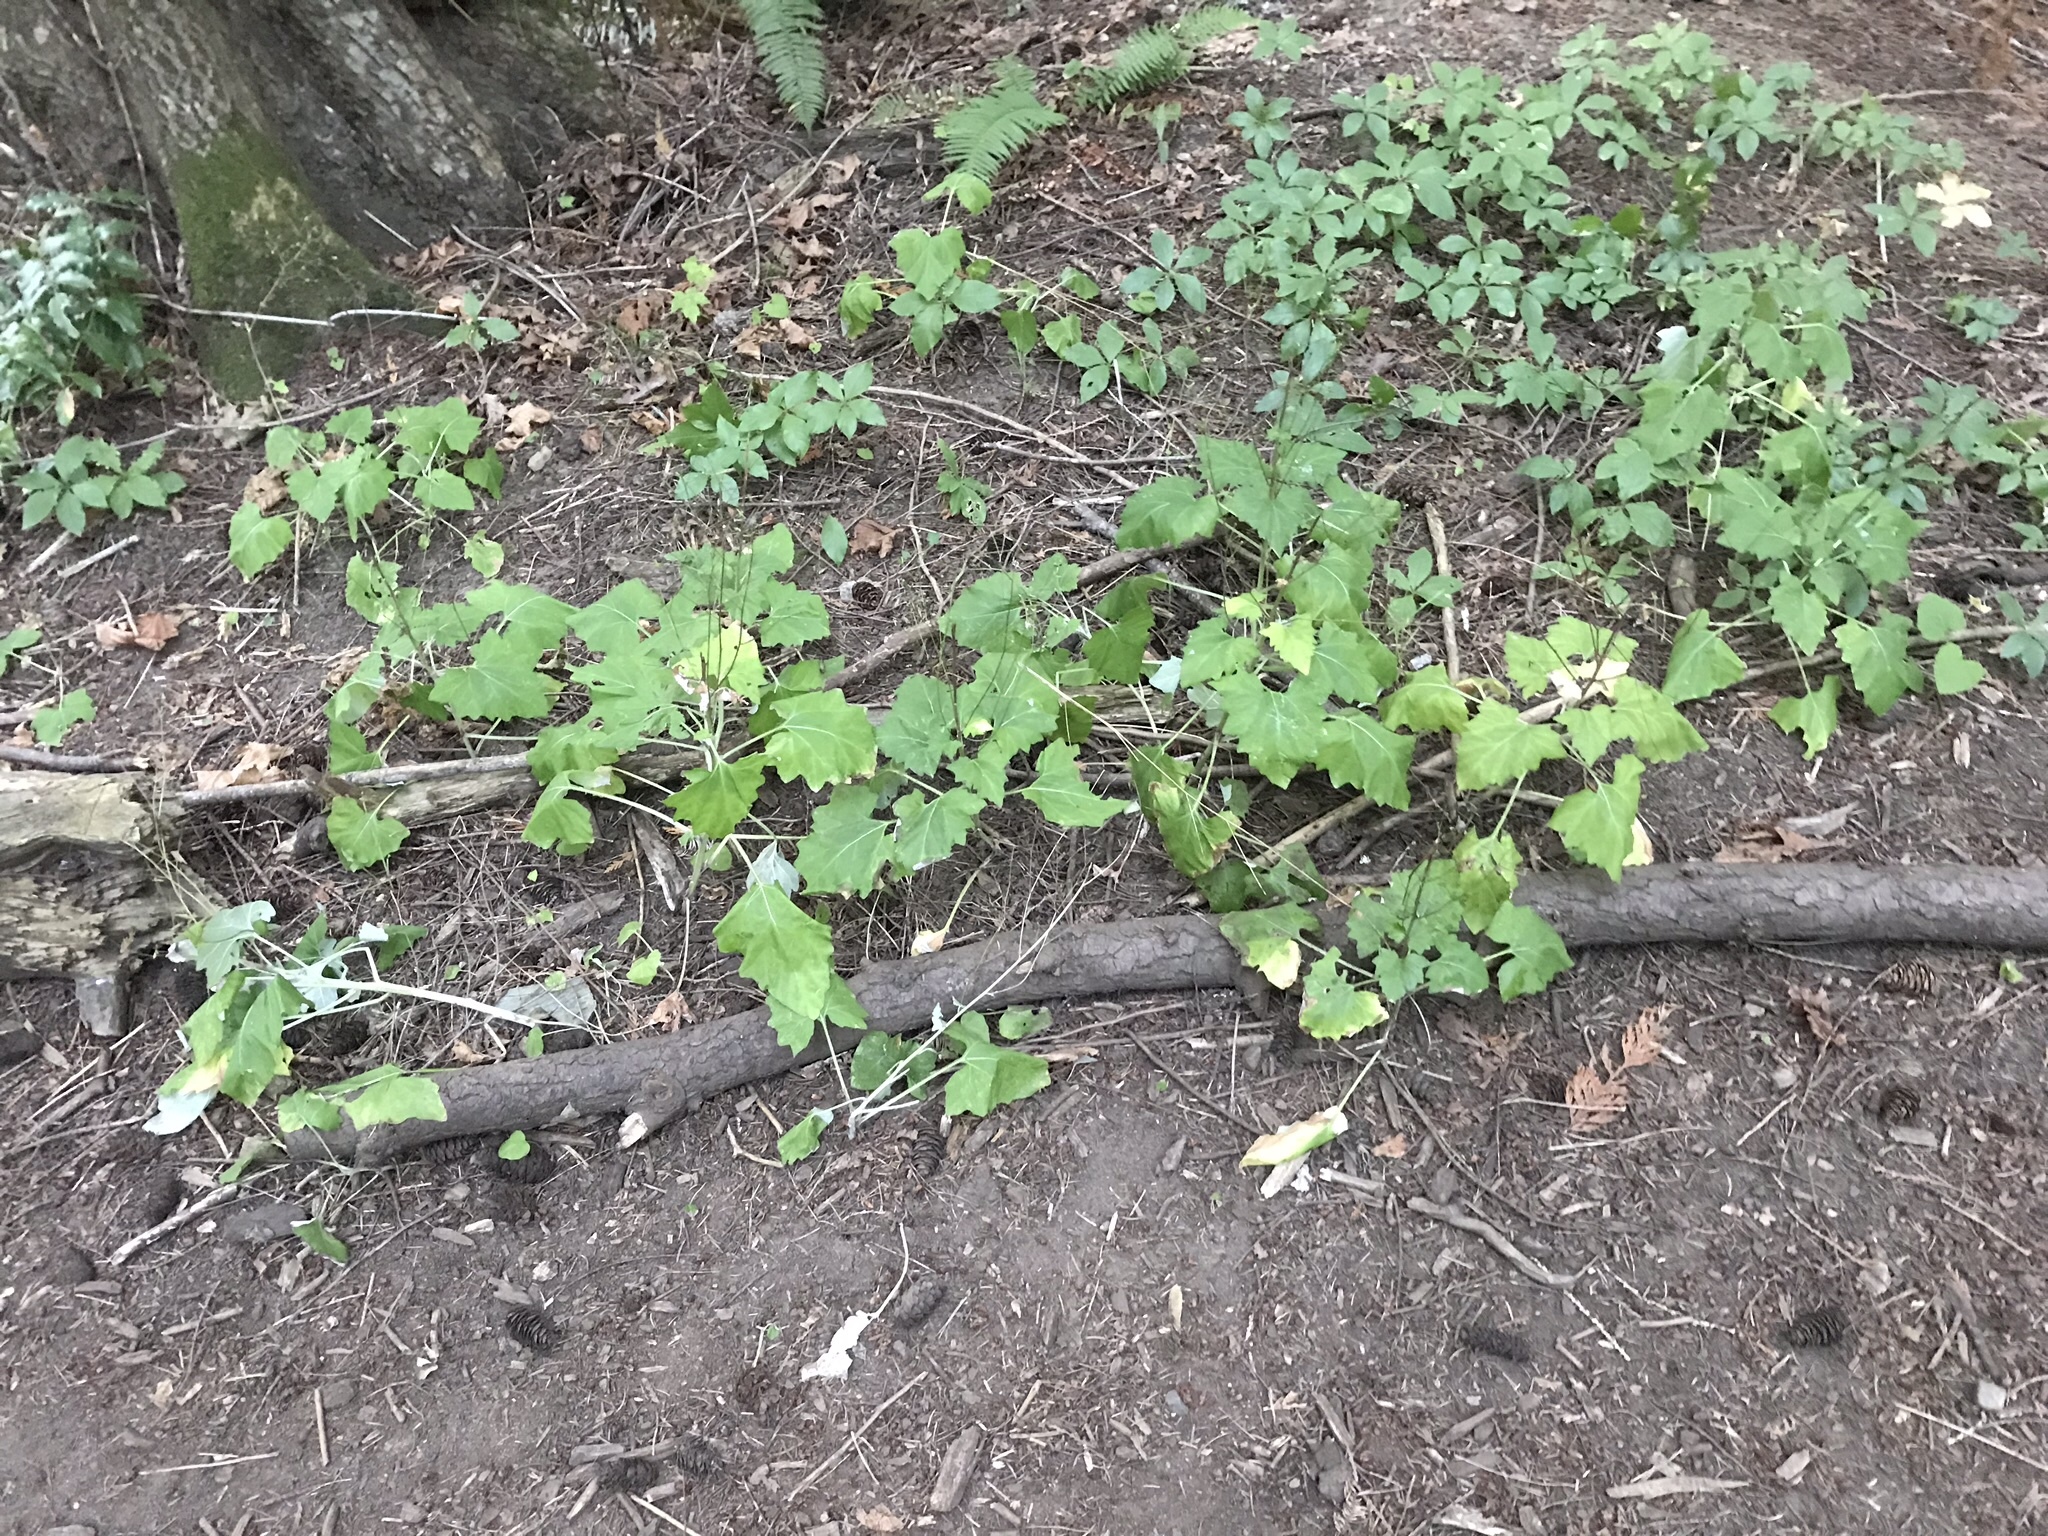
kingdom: Plantae
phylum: Tracheophyta
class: Magnoliopsida
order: Asterales
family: Asteraceae
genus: Adenocaulon
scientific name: Adenocaulon bicolor
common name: Trailplant
